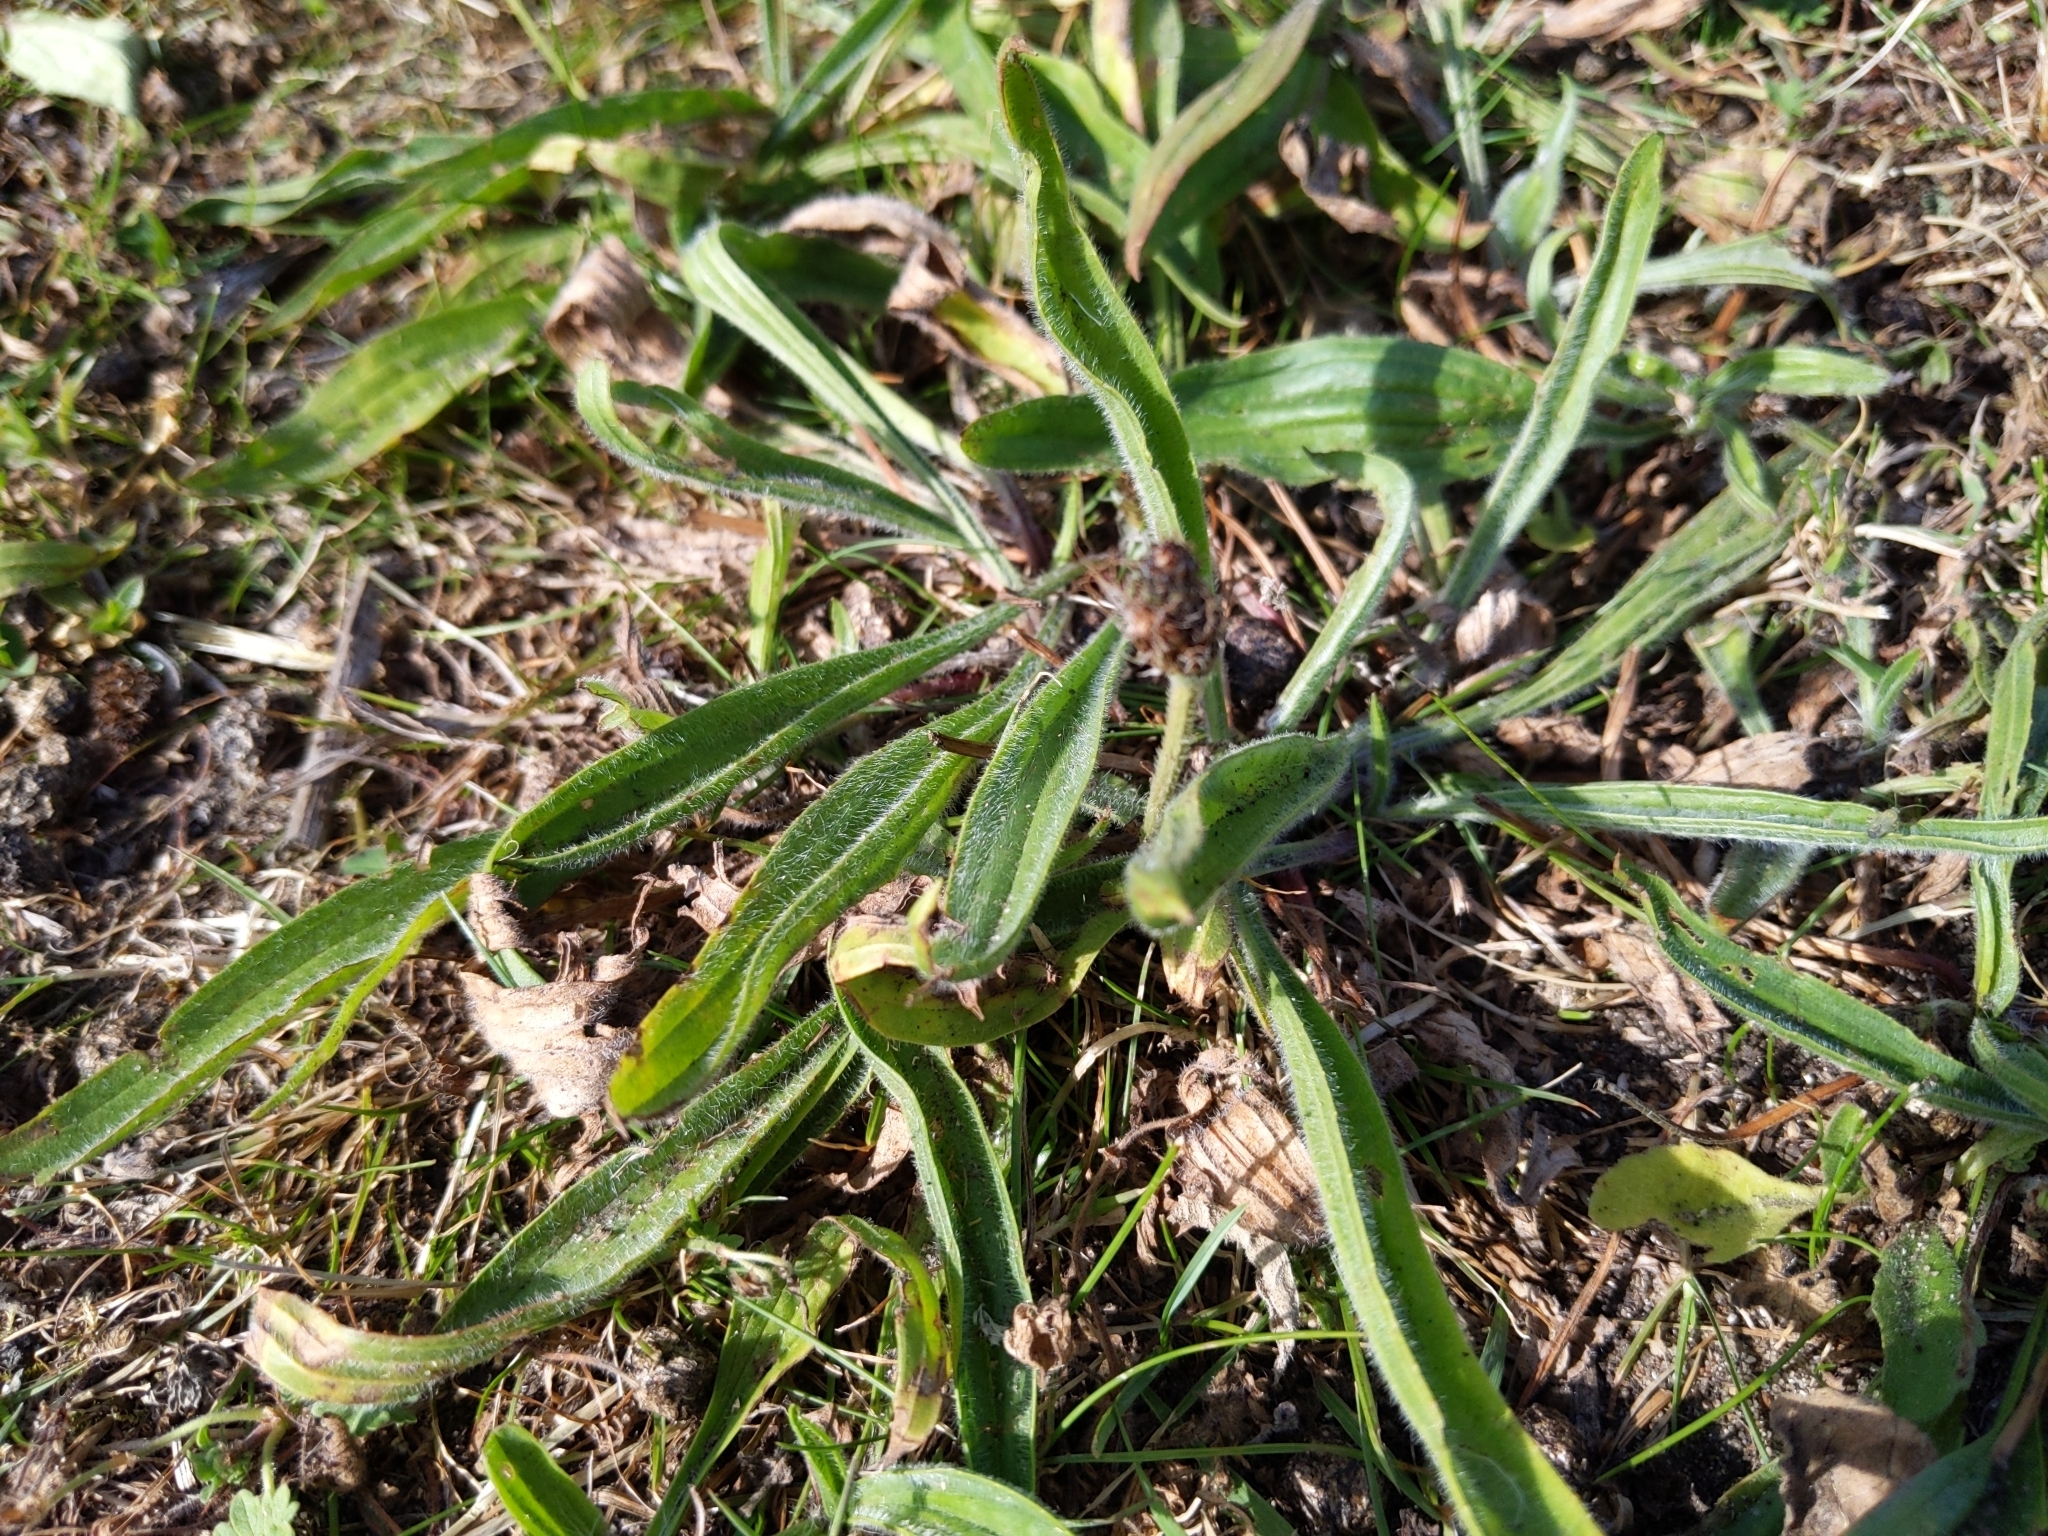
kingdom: Plantae
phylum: Tracheophyta
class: Magnoliopsida
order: Lamiales
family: Plantaginaceae
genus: Plantago
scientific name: Plantago lanceolata
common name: Ribwort plantain
